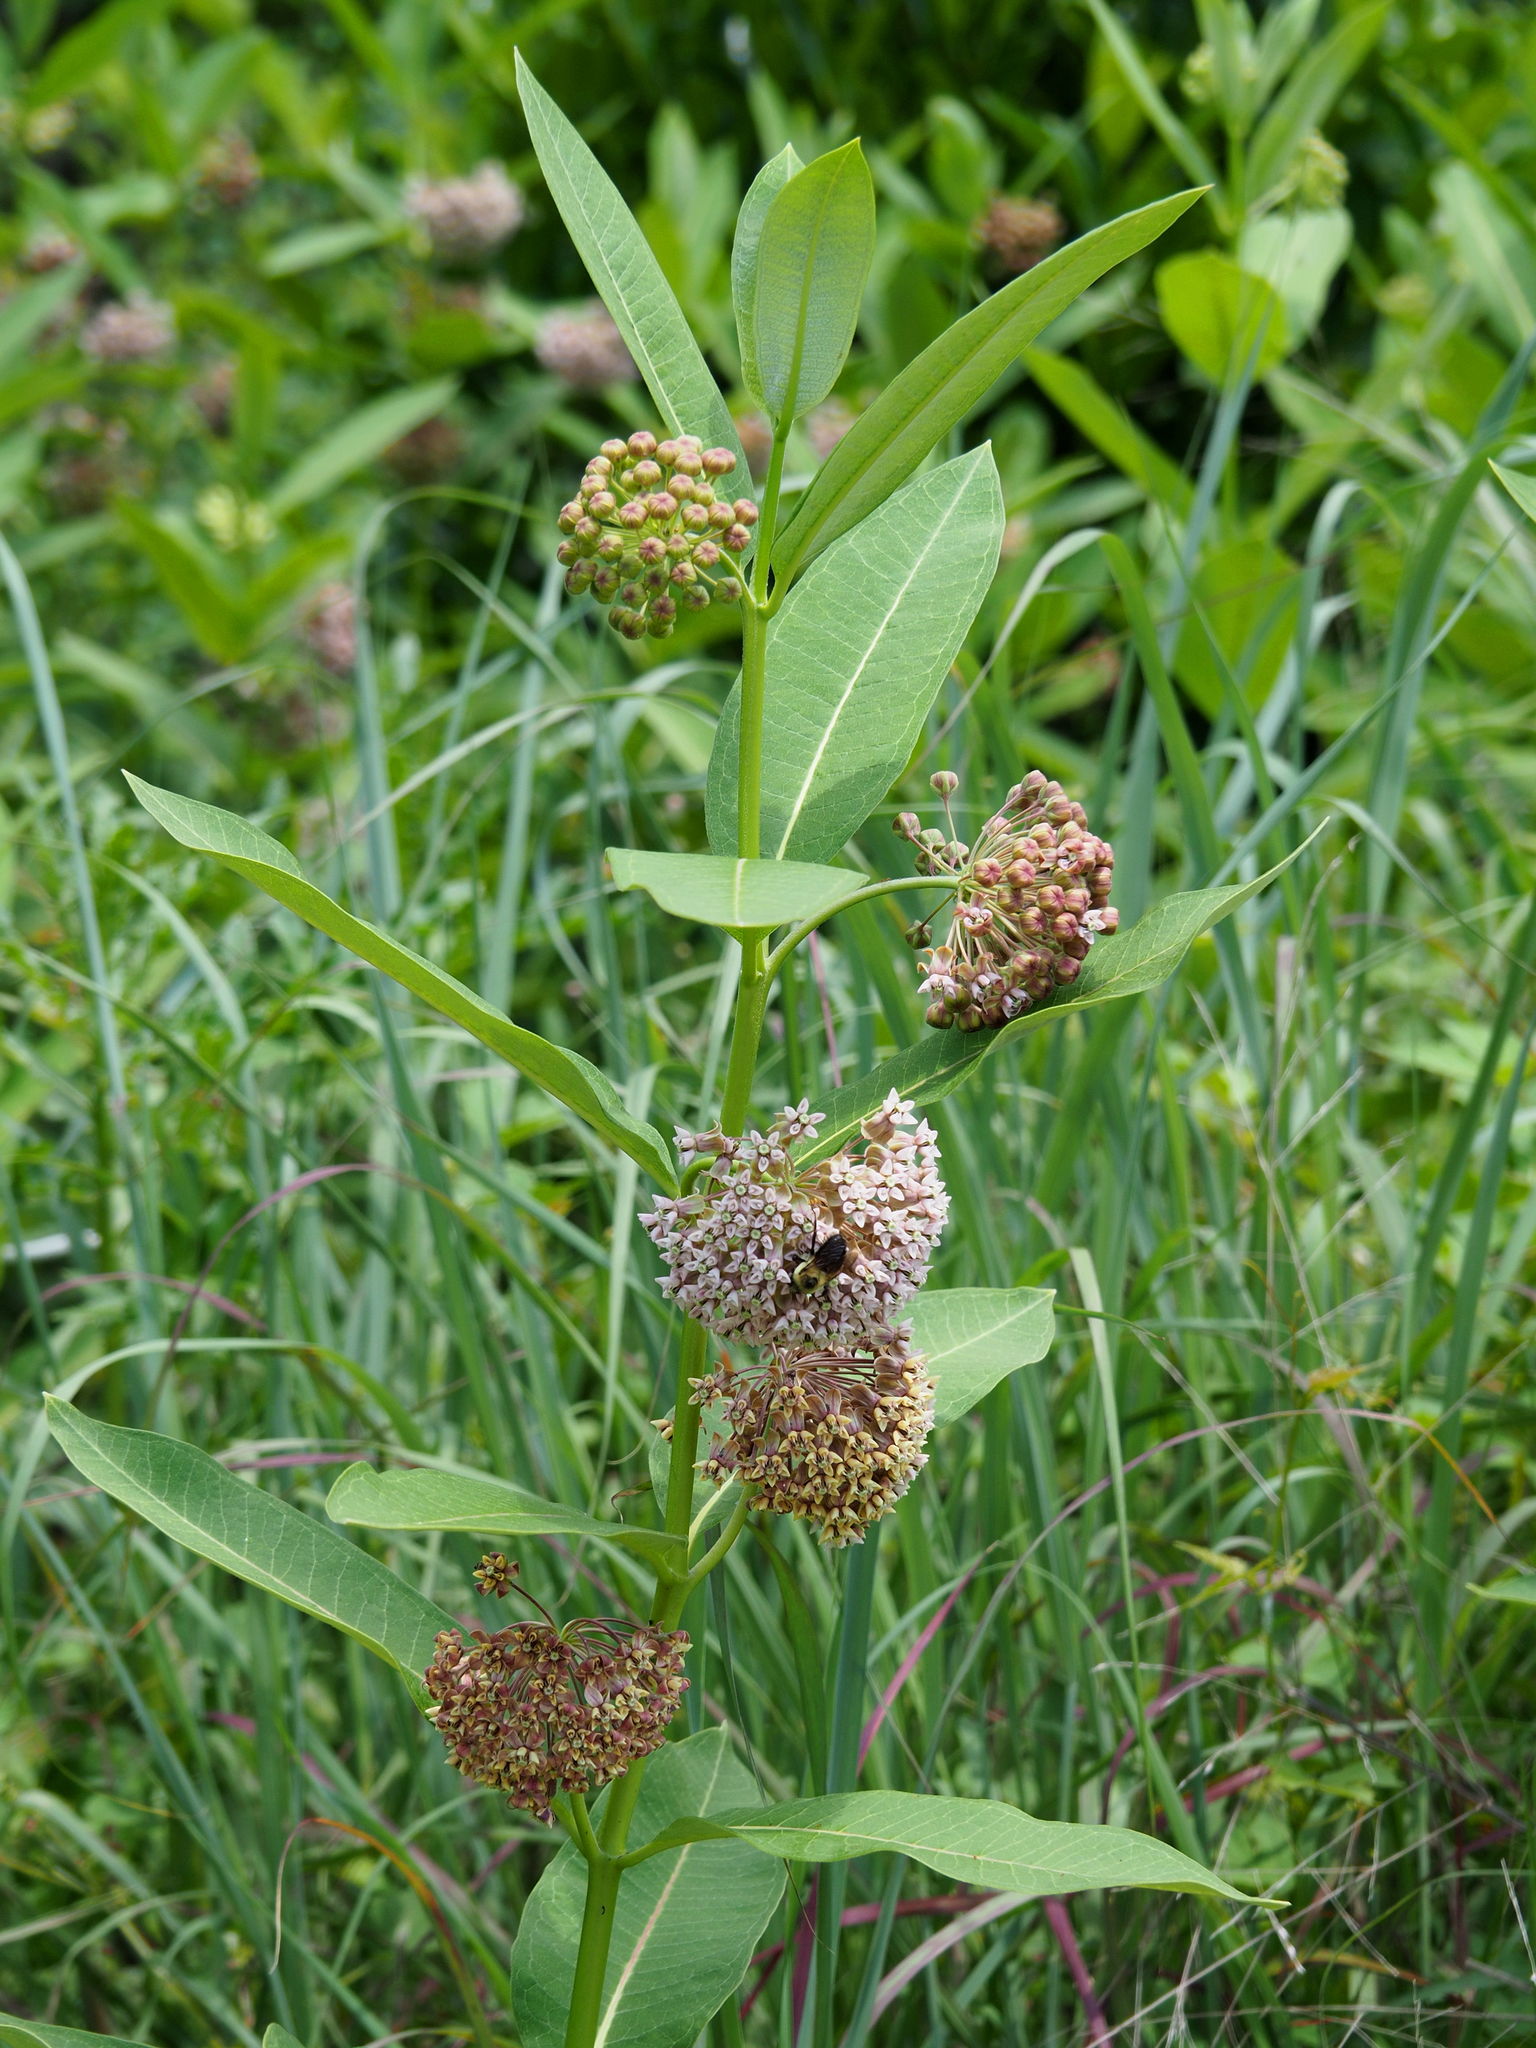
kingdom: Plantae
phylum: Tracheophyta
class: Magnoliopsida
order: Gentianales
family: Apocynaceae
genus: Asclepias
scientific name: Asclepias syriaca
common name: Common milkweed
